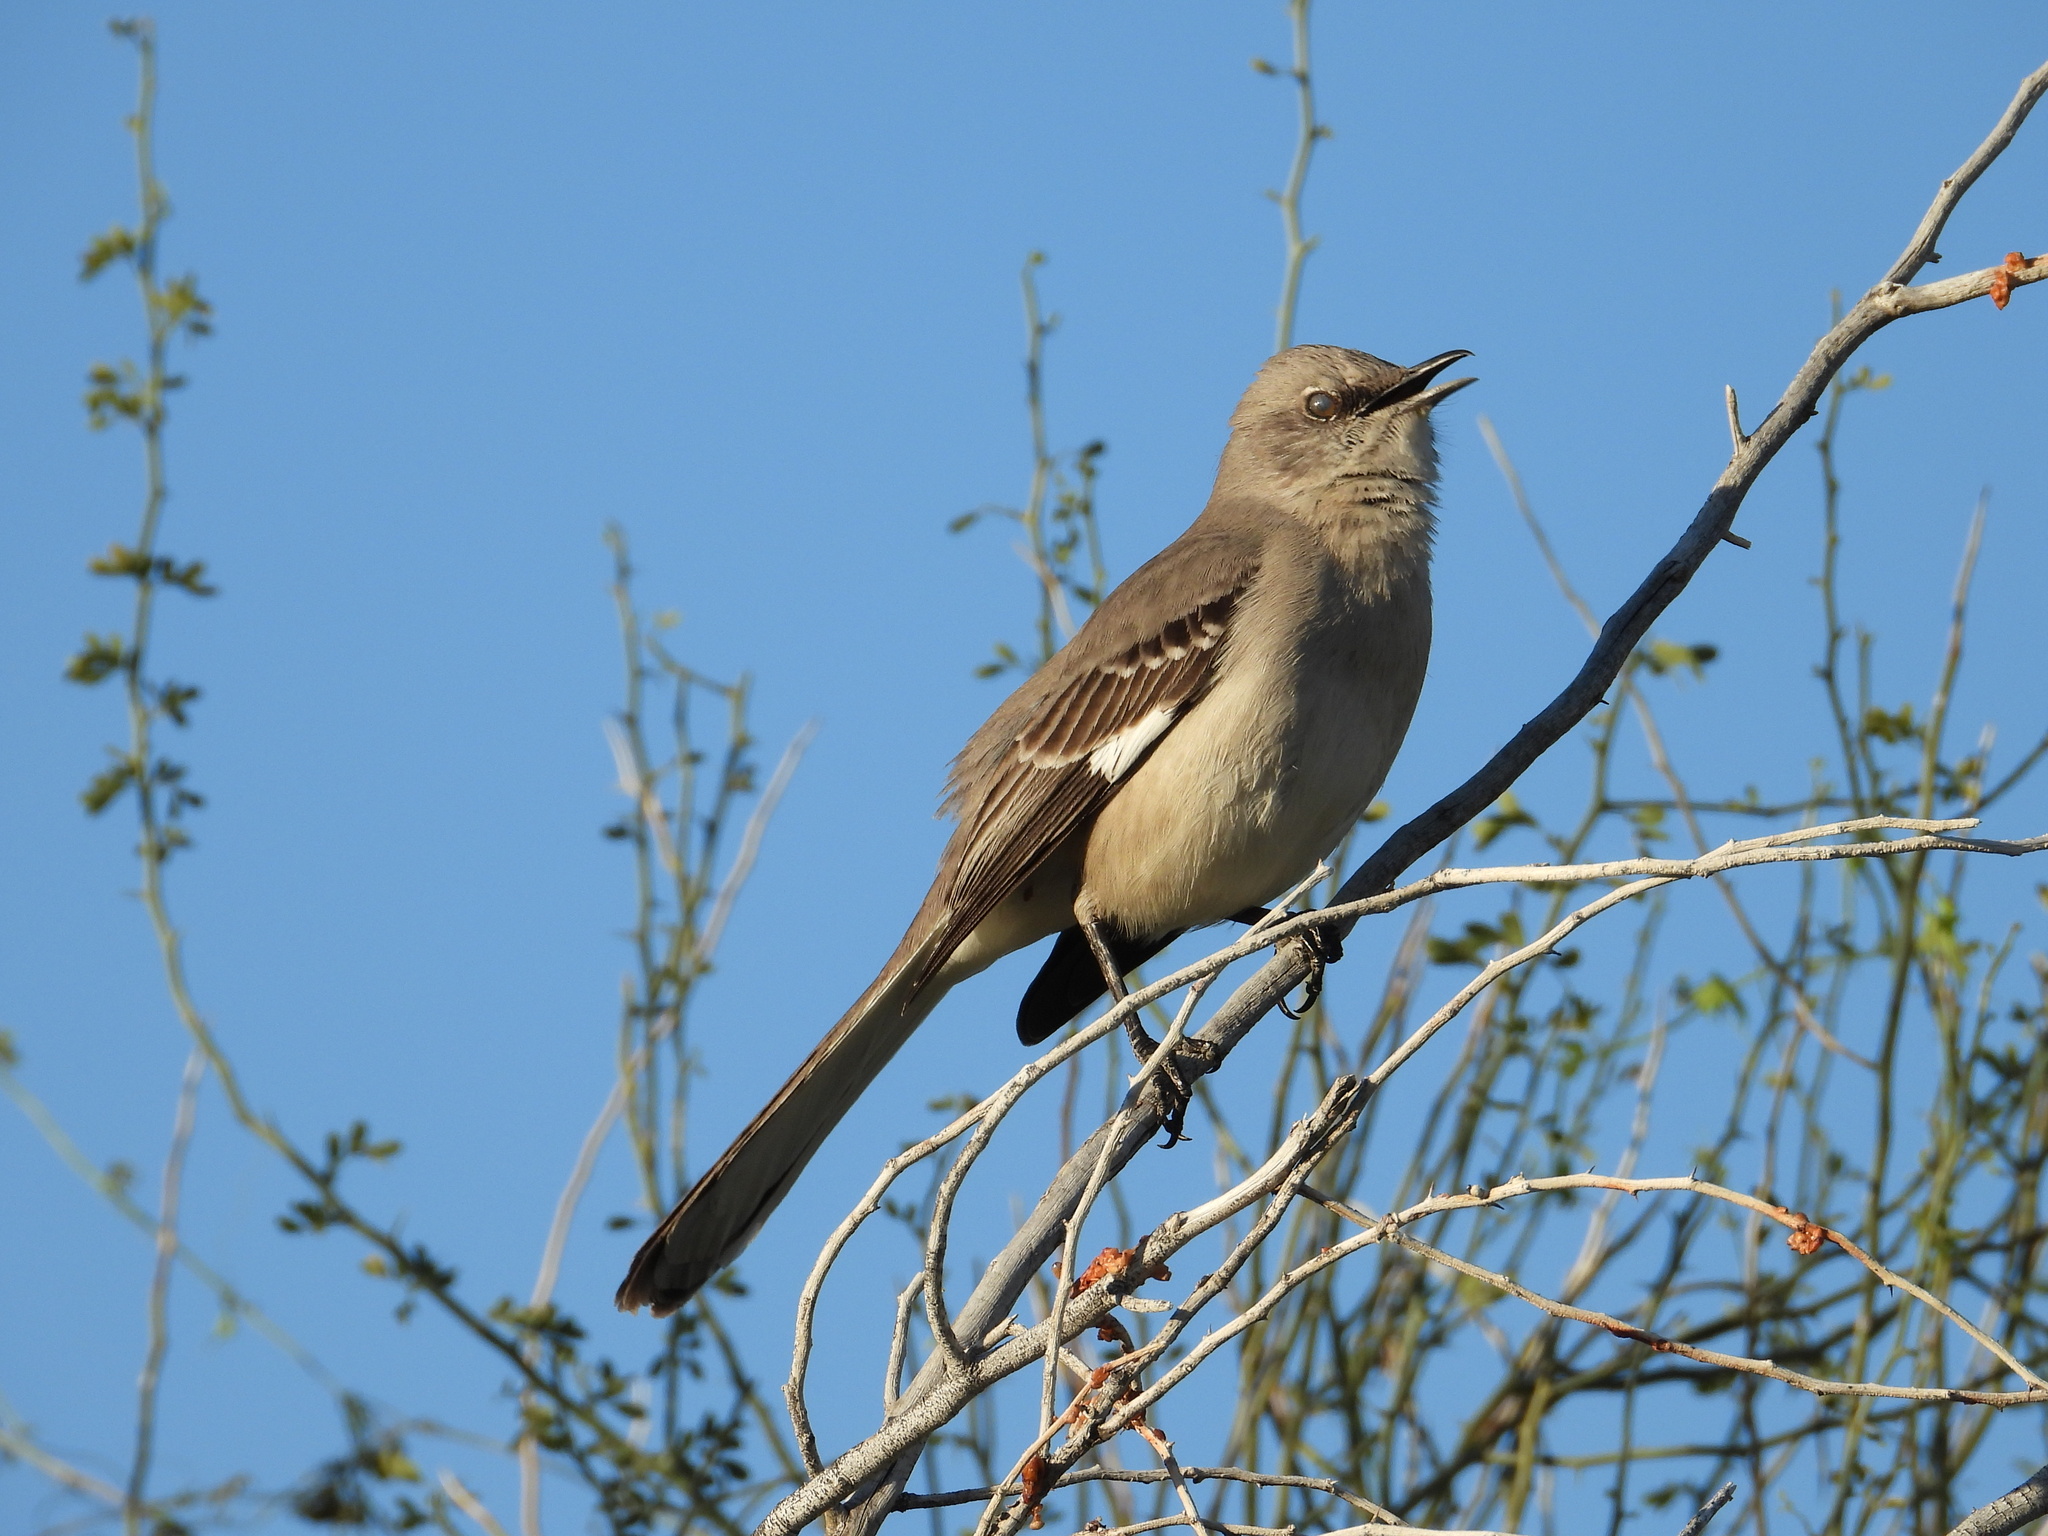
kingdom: Animalia
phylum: Chordata
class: Aves
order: Passeriformes
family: Mimidae
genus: Mimus
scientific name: Mimus polyglottos
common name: Northern mockingbird
